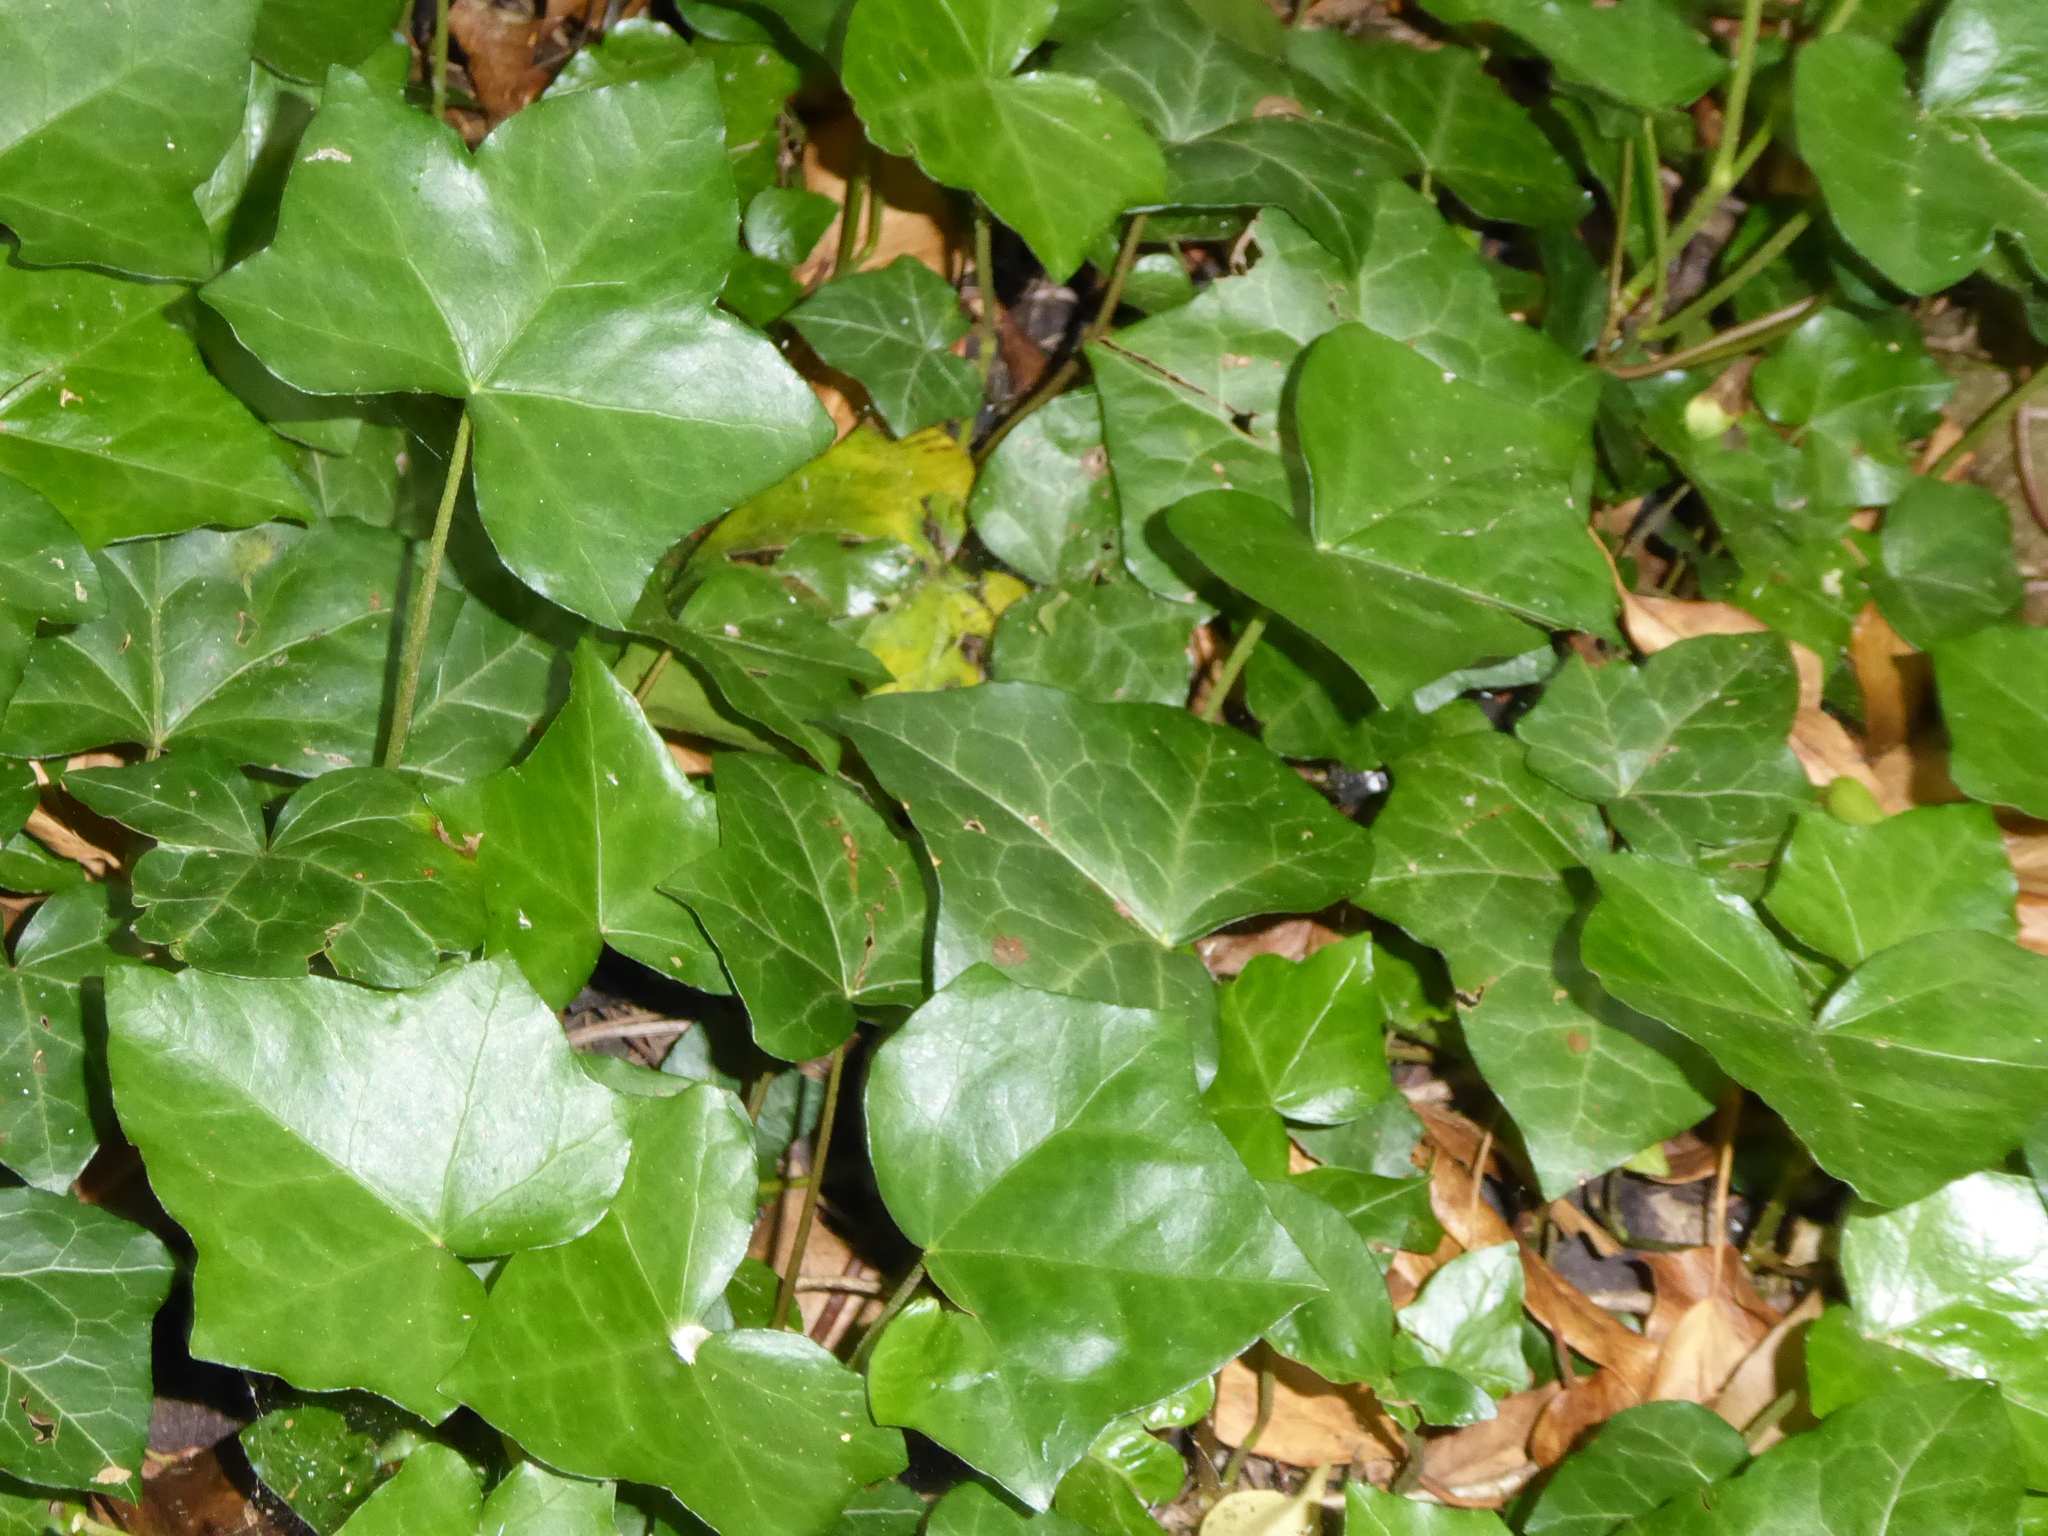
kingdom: Plantae
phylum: Tracheophyta
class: Magnoliopsida
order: Apiales
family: Araliaceae
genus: Hedera
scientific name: Hedera helix
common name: Ivy
